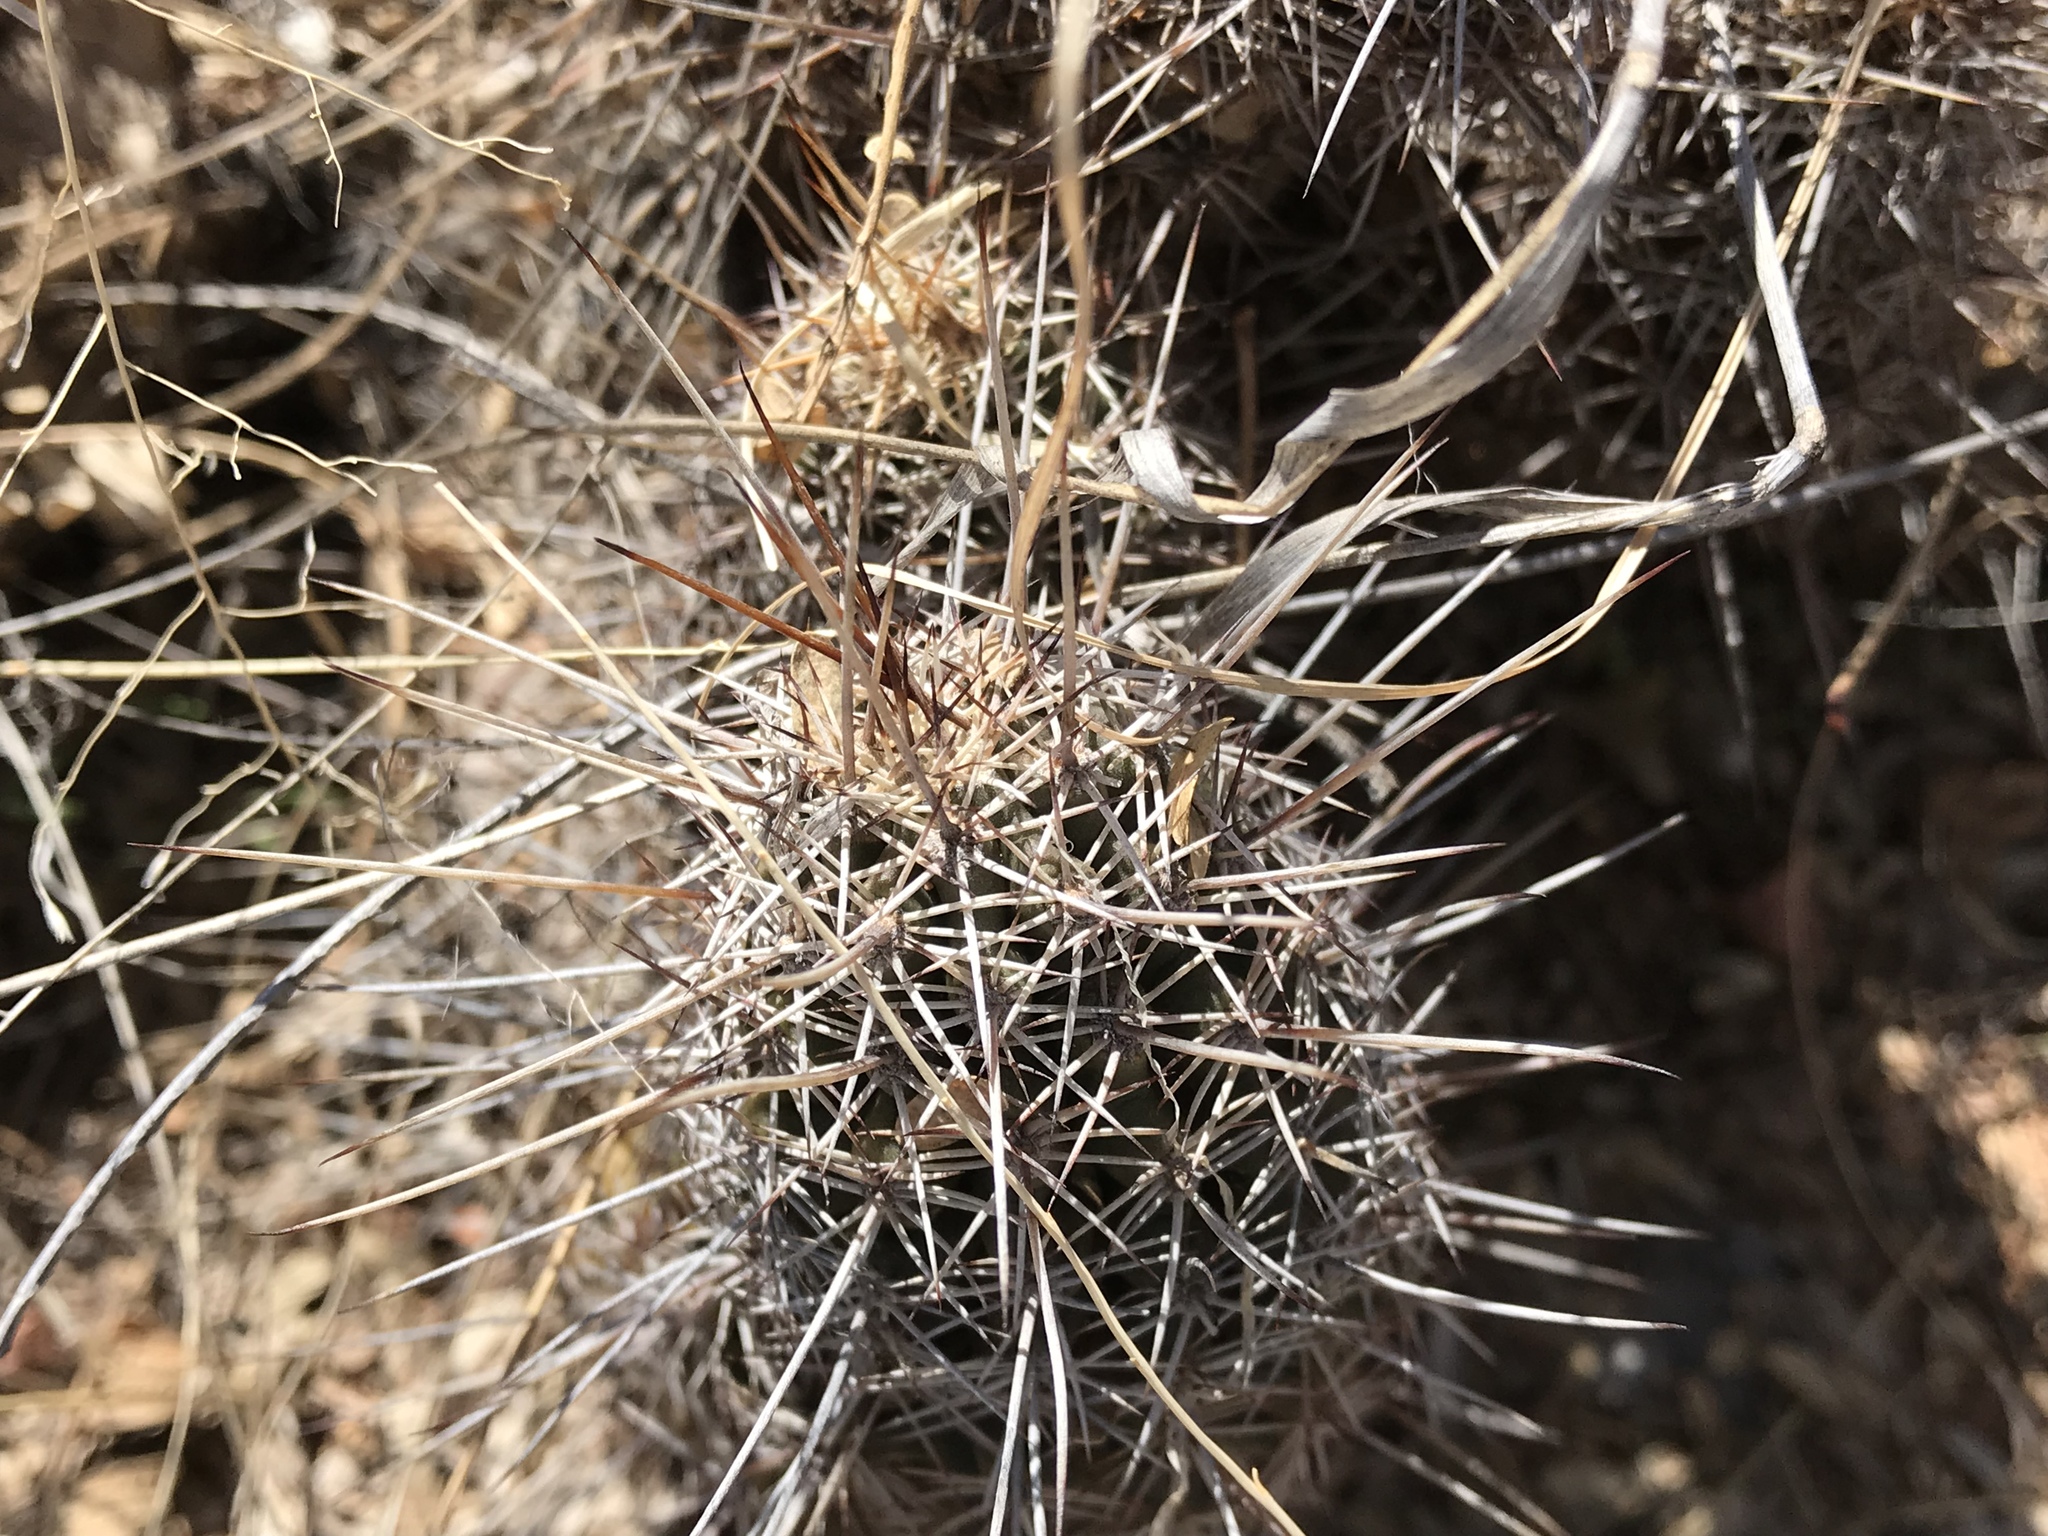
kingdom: Plantae
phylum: Tracheophyta
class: Magnoliopsida
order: Caryophyllales
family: Cactaceae
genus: Echinocereus
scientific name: Echinocereus fasciculatus
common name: Bundle hedgehog
